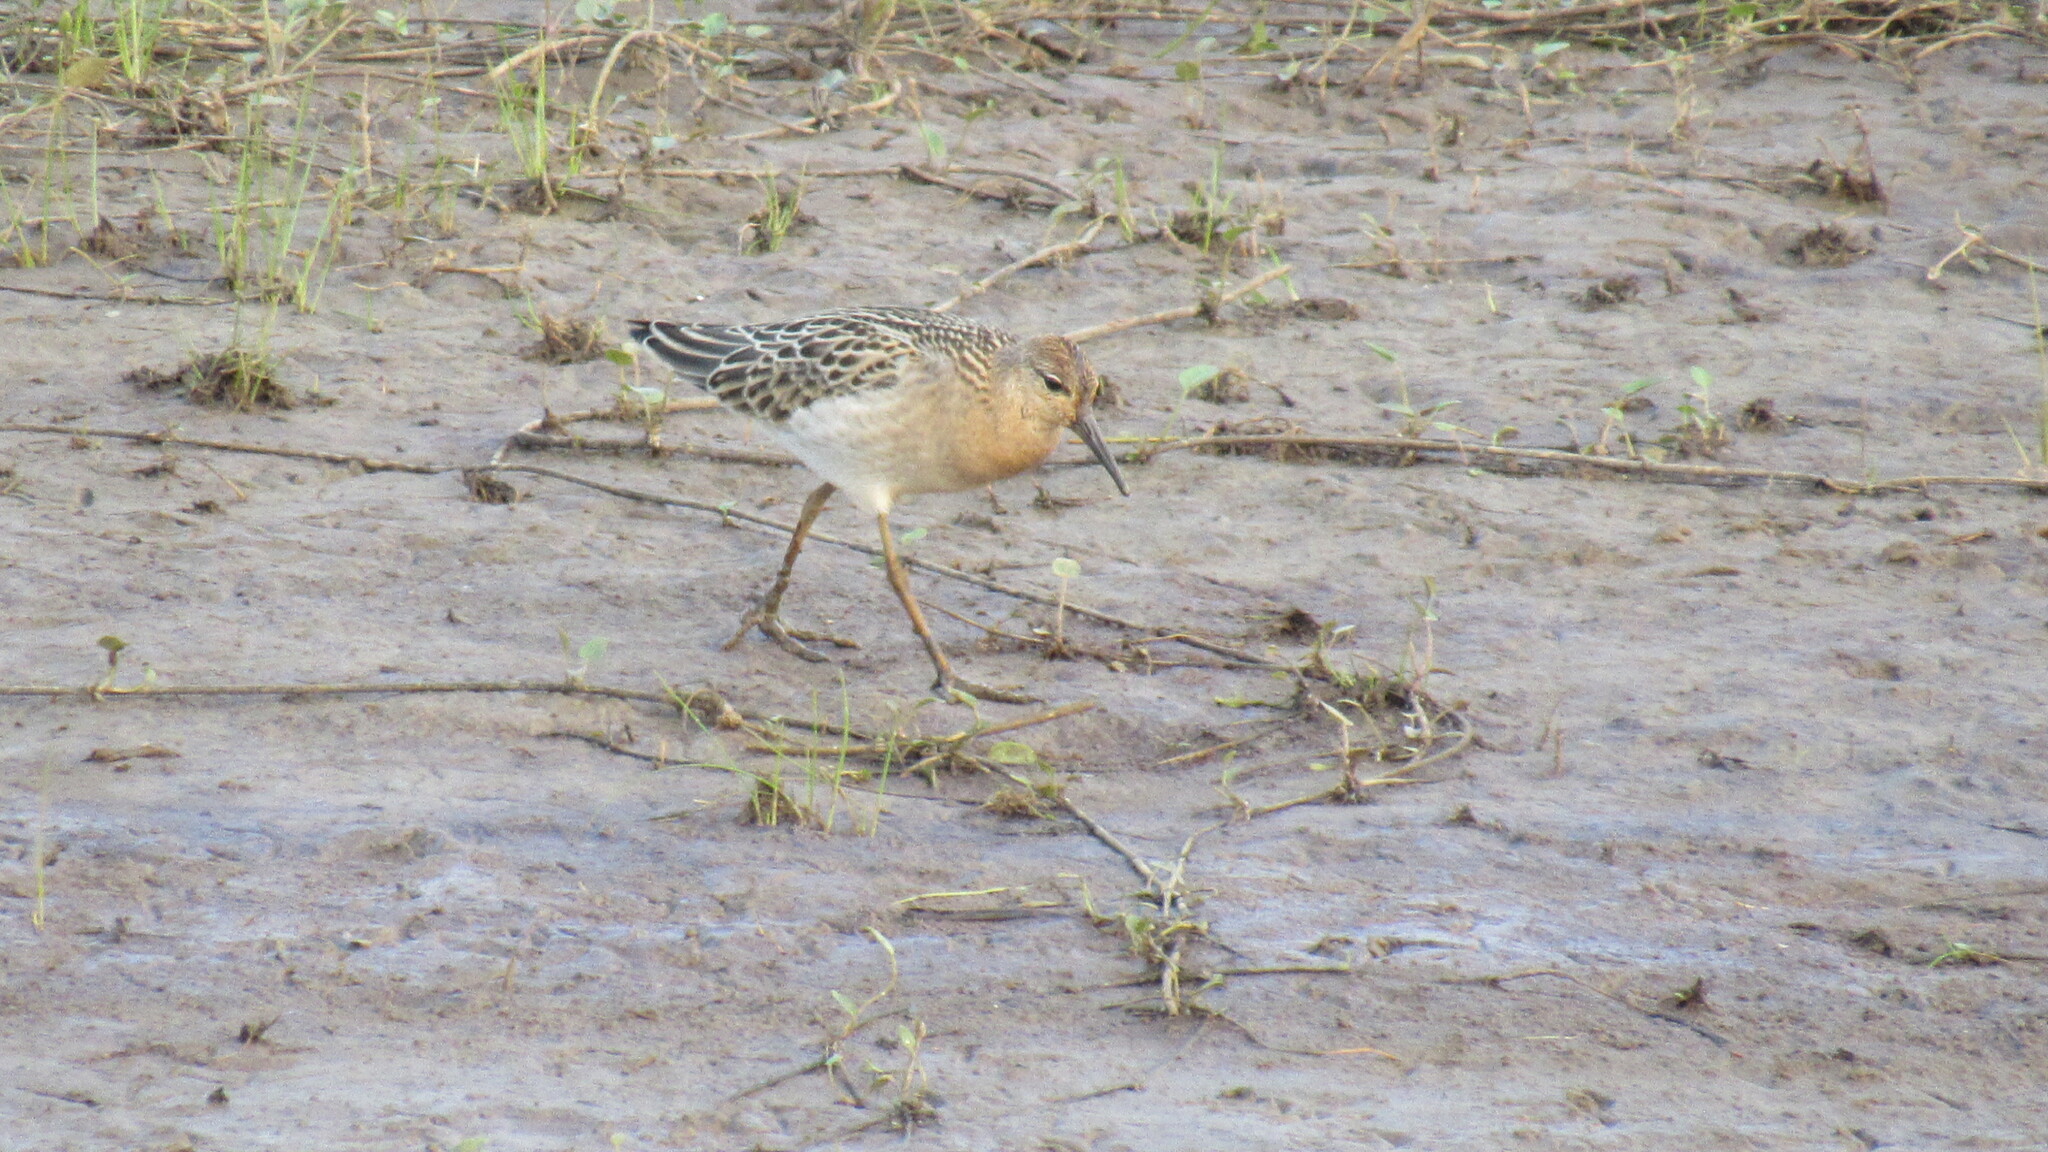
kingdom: Animalia
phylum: Chordata
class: Aves
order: Charadriiformes
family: Scolopacidae
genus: Calidris
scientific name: Calidris pugnax
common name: Ruff
